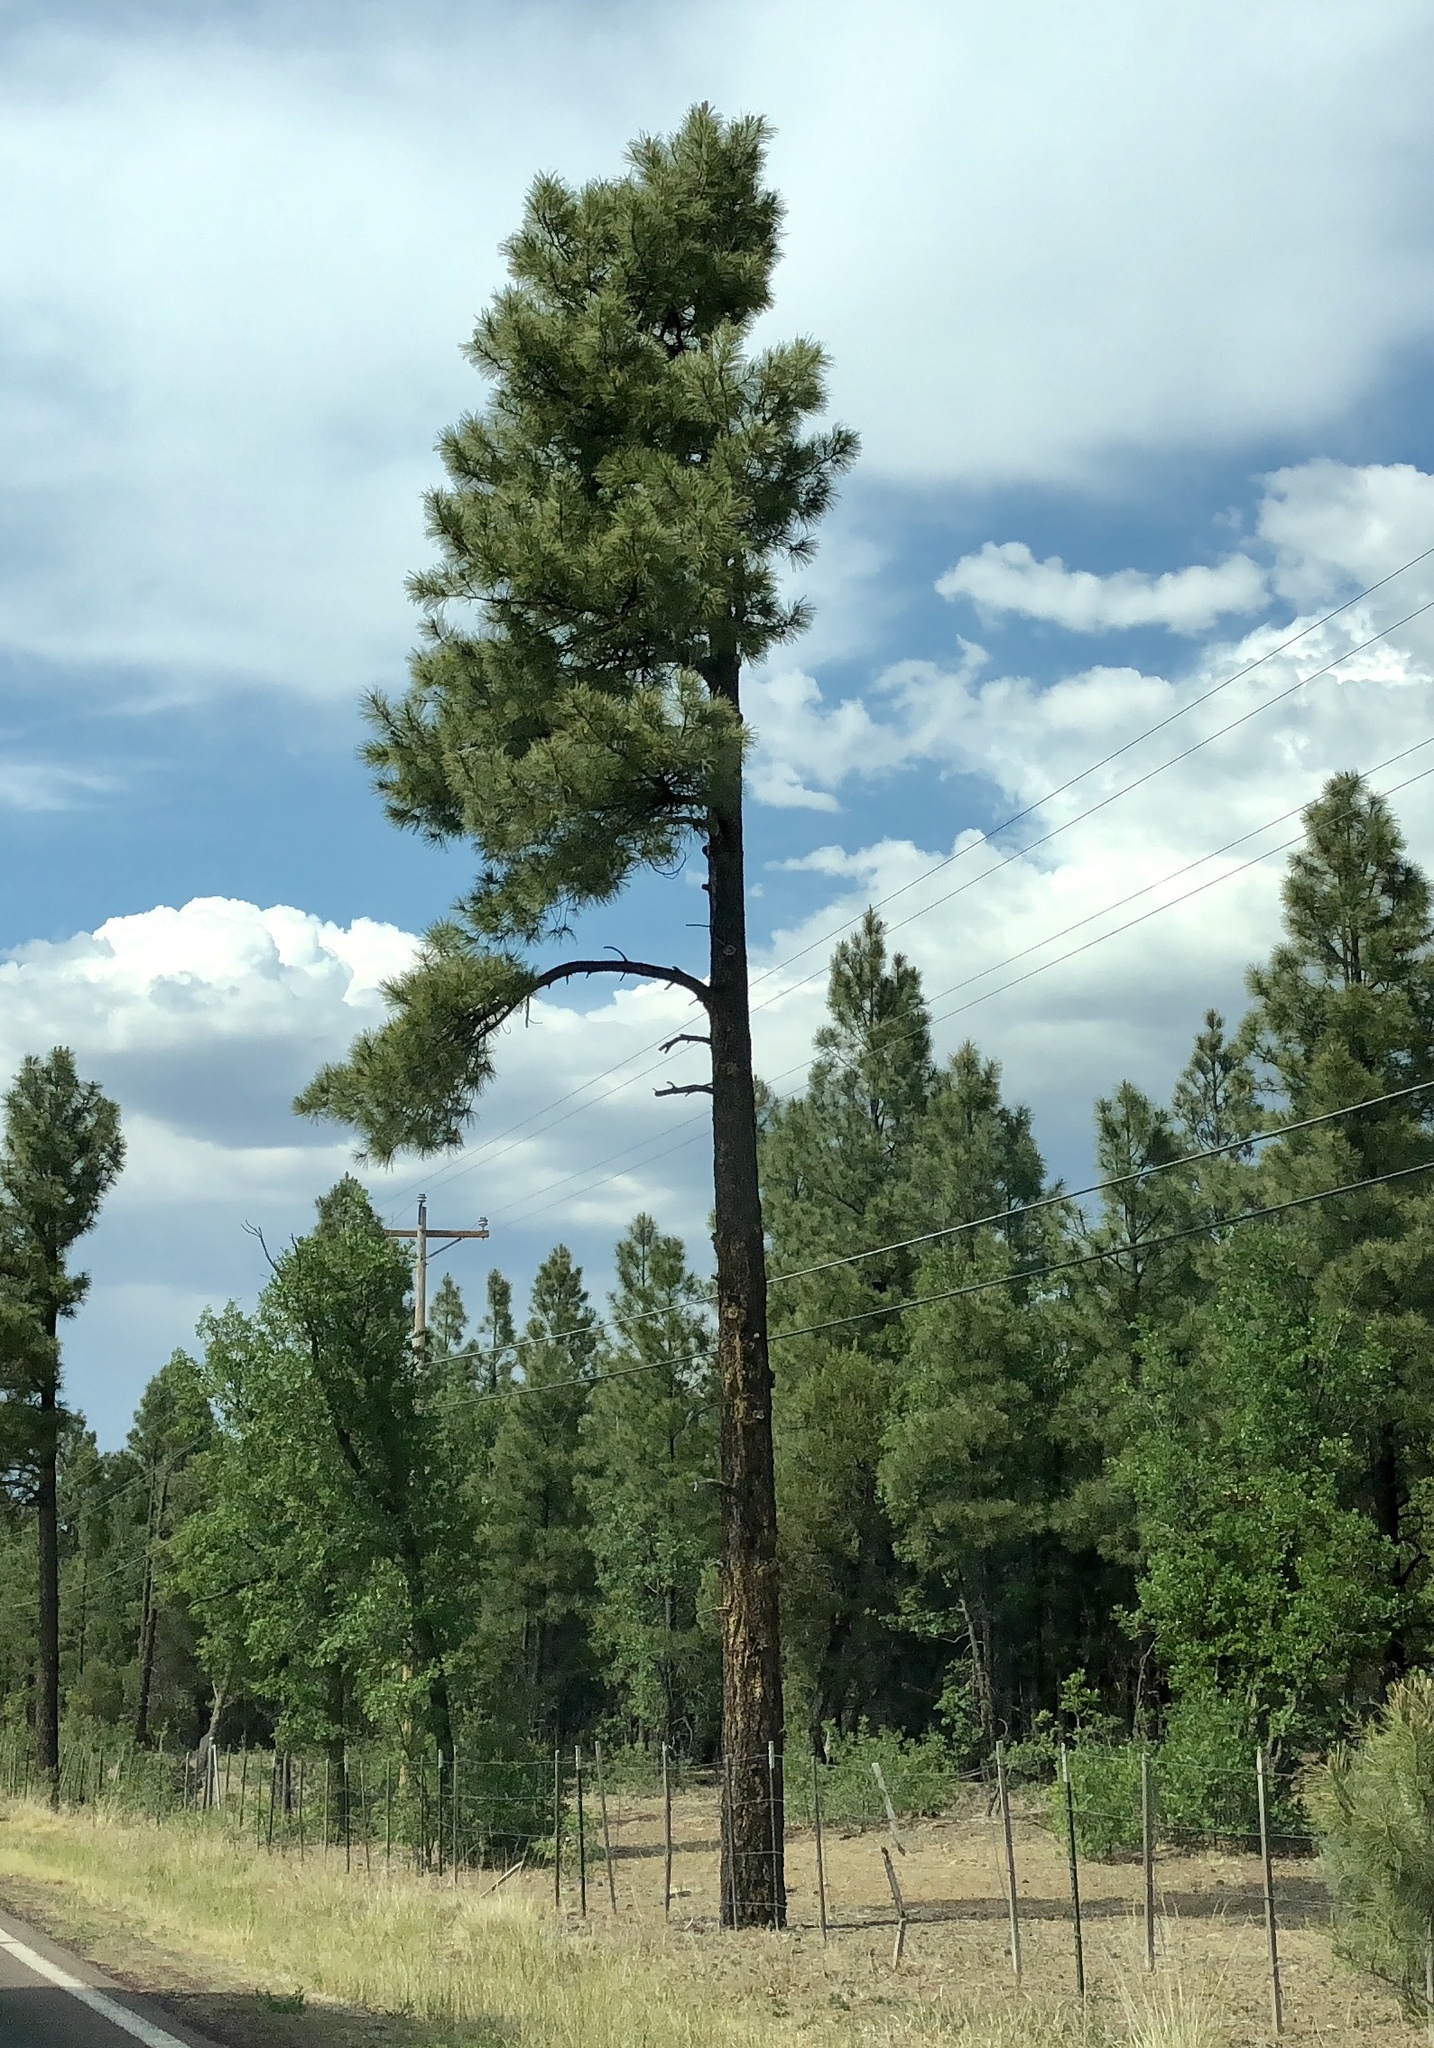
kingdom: Plantae
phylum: Tracheophyta
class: Pinopsida
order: Pinales
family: Pinaceae
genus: Pinus
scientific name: Pinus ponderosa
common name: Western yellow-pine
